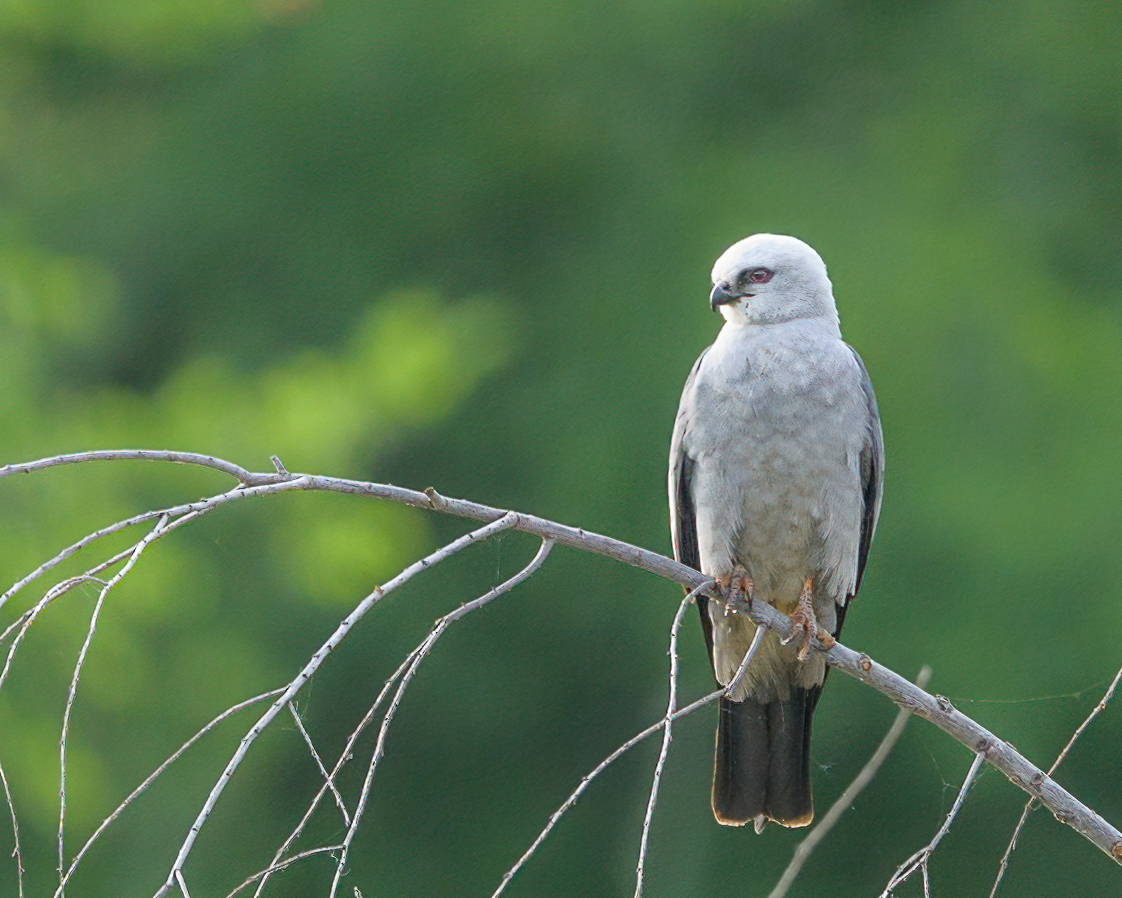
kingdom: Animalia
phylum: Chordata
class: Aves
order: Accipitriformes
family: Accipitridae
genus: Ictinia
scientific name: Ictinia mississippiensis
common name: Mississippi kite
